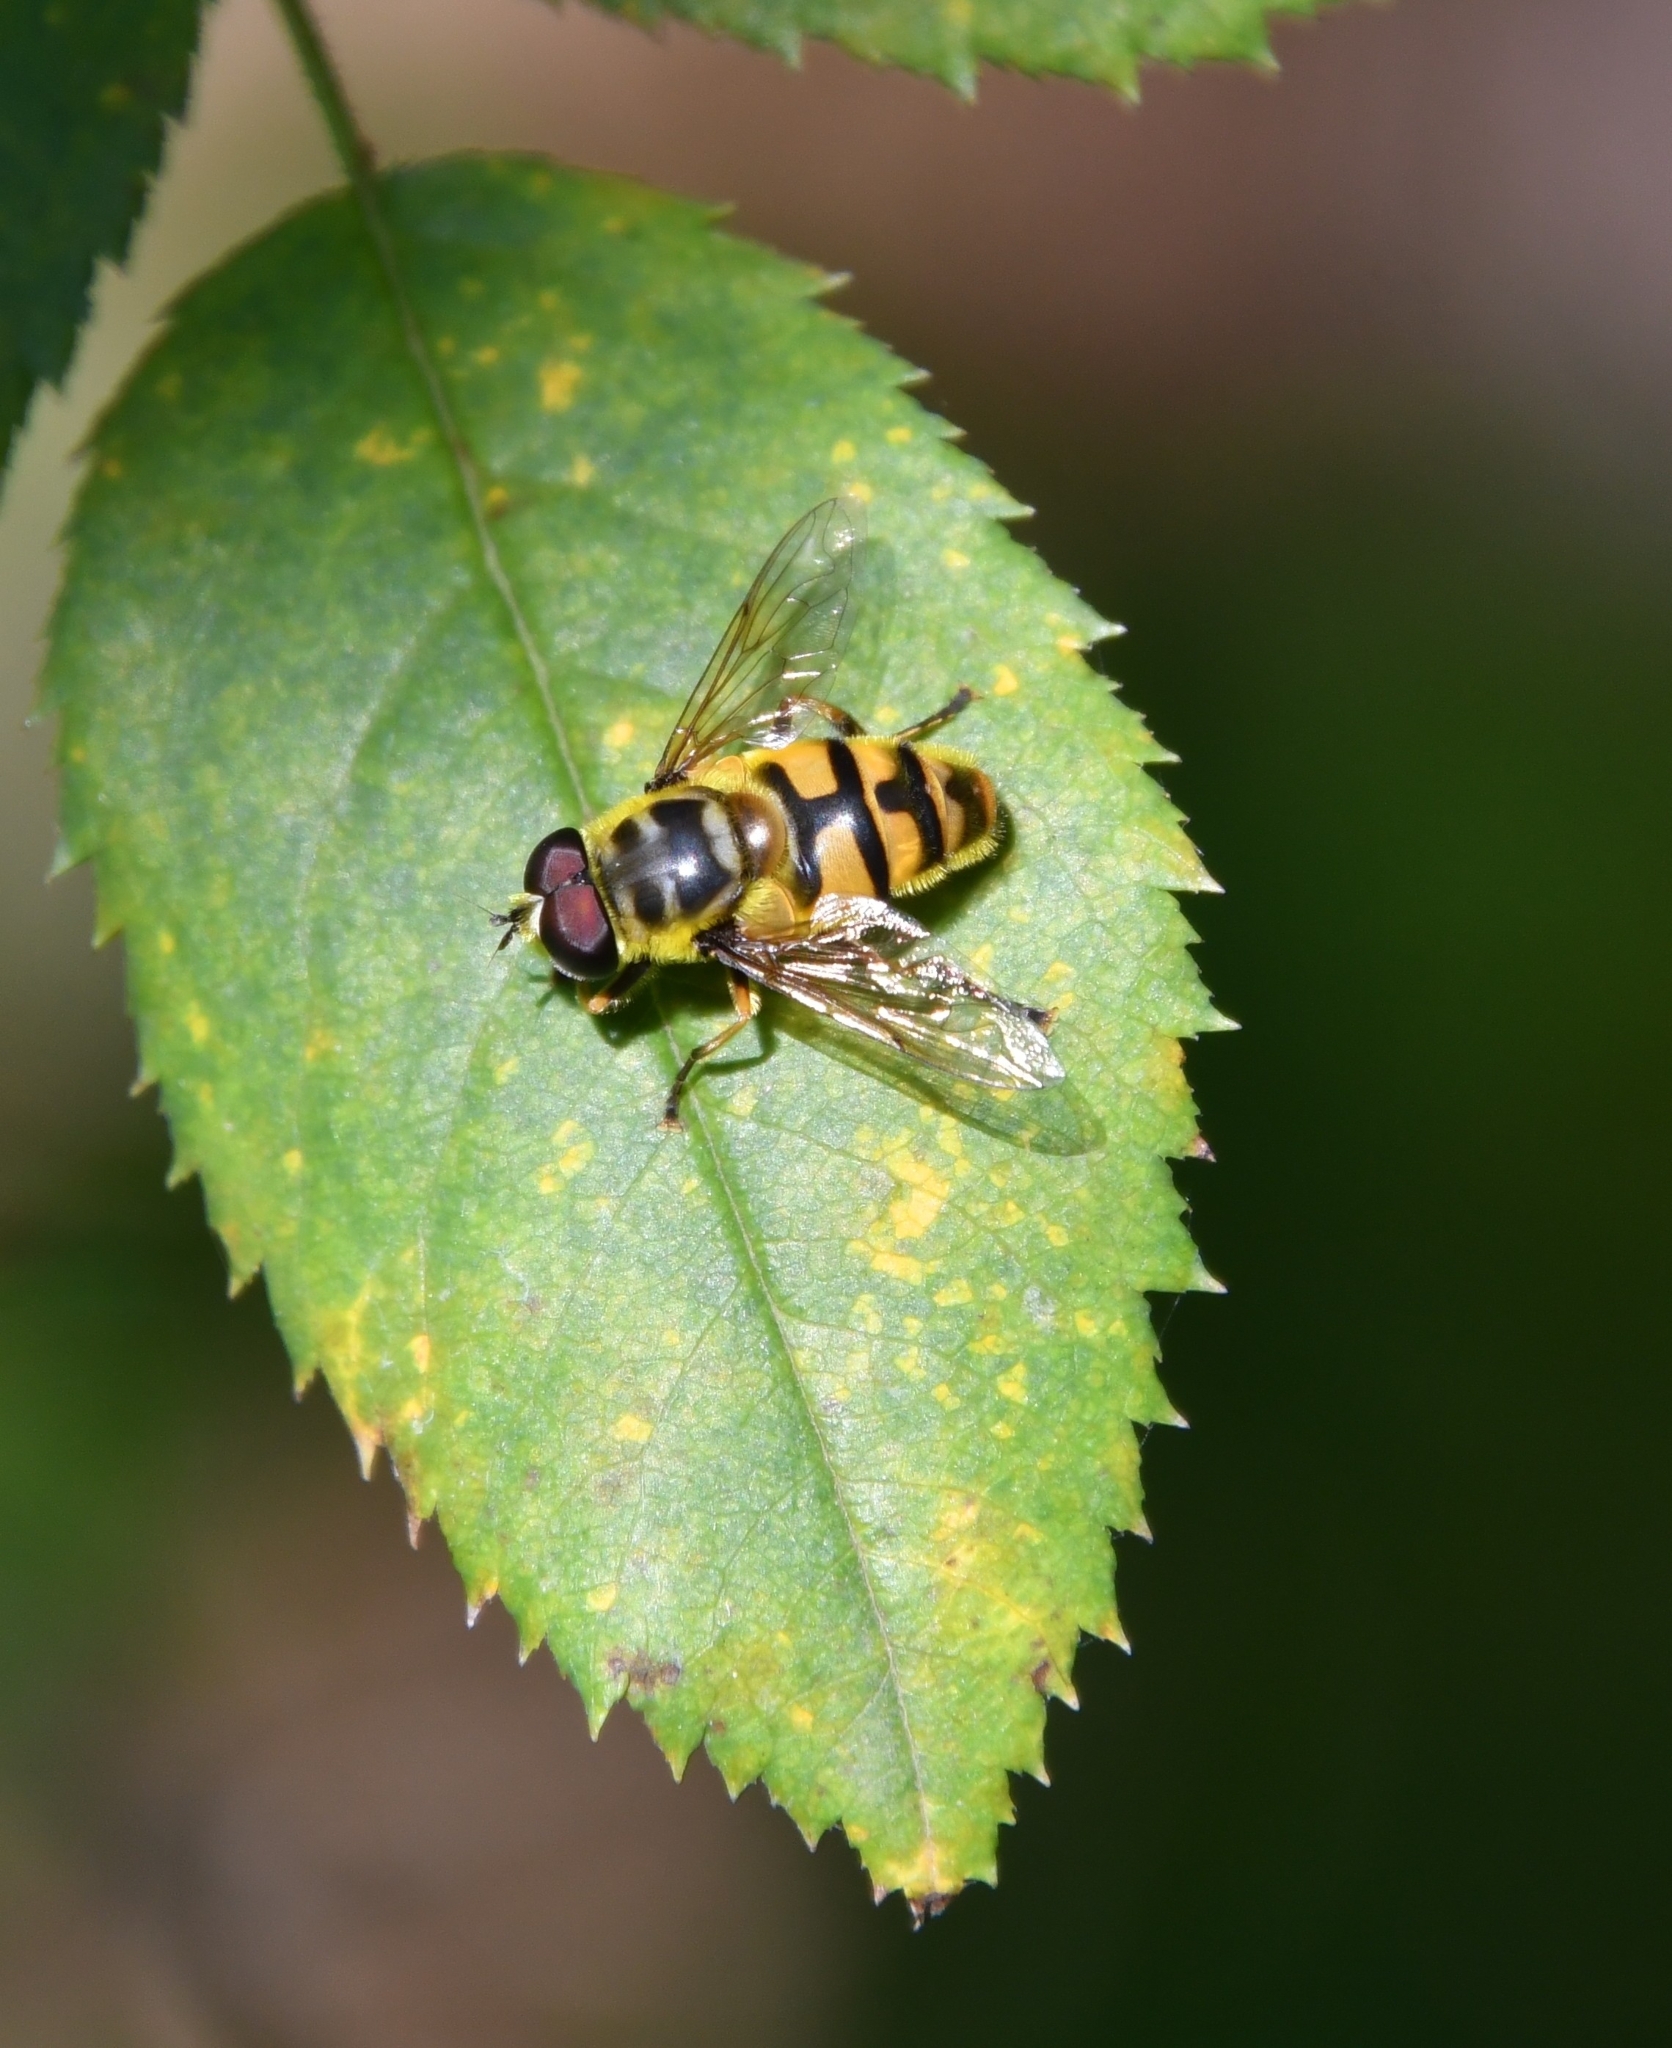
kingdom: Animalia
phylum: Arthropoda
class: Insecta
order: Diptera
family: Syrphidae
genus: Myathropa
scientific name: Myathropa florea
